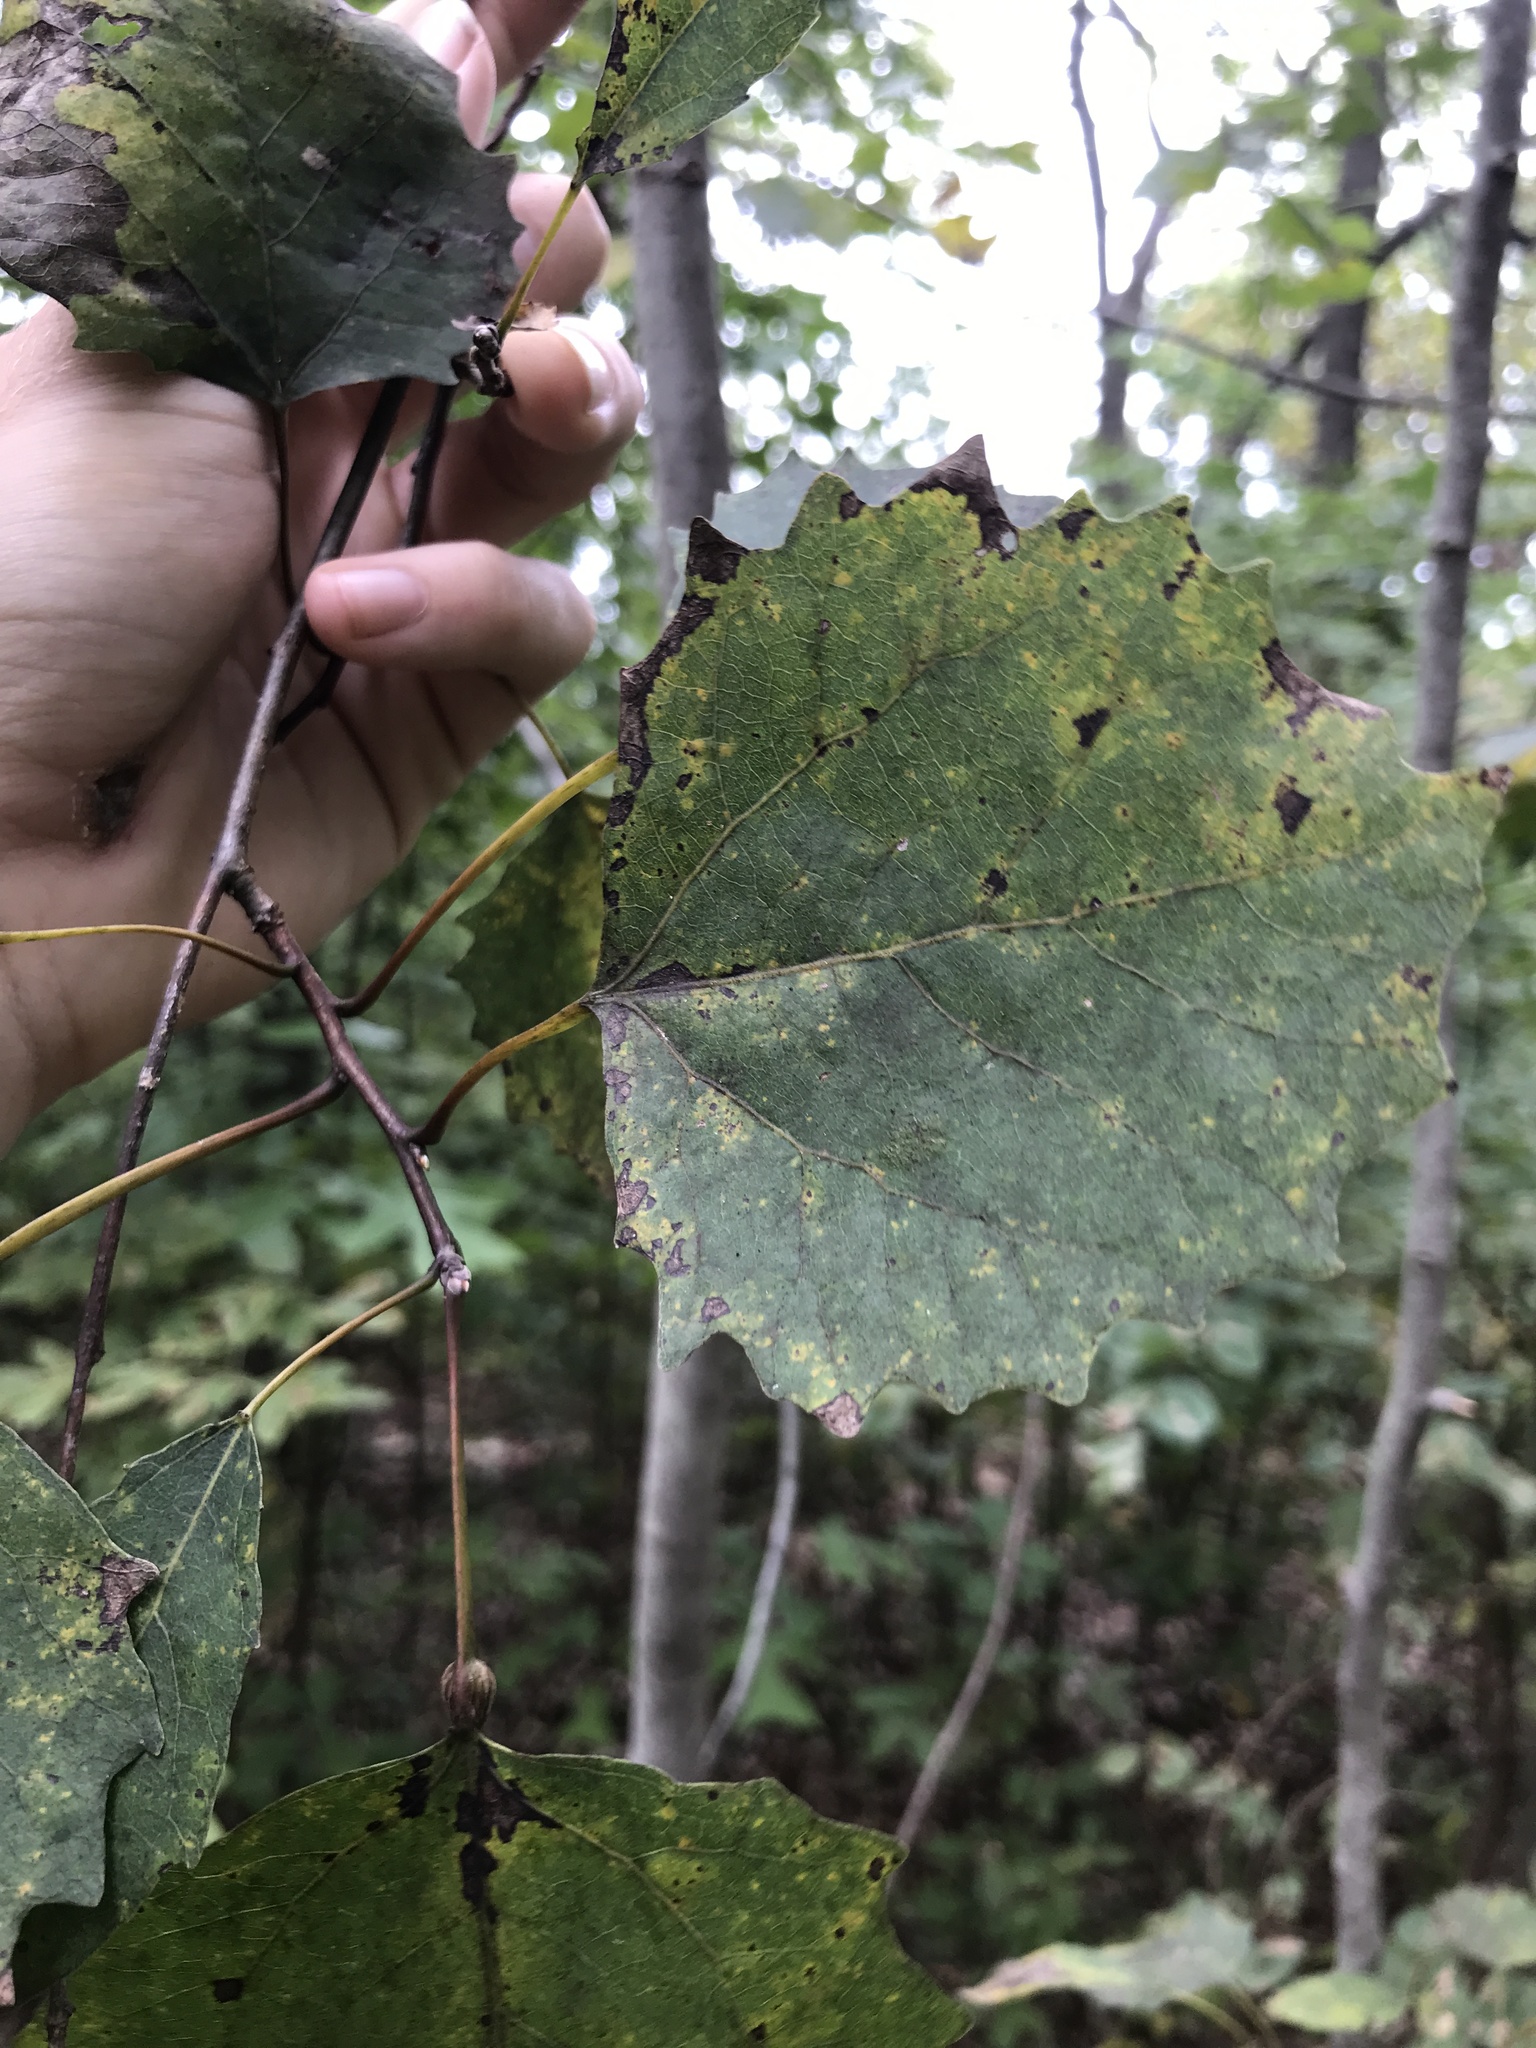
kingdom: Plantae
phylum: Tracheophyta
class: Magnoliopsida
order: Malpighiales
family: Salicaceae
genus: Populus
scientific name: Populus grandidentata
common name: Bigtooth aspen
